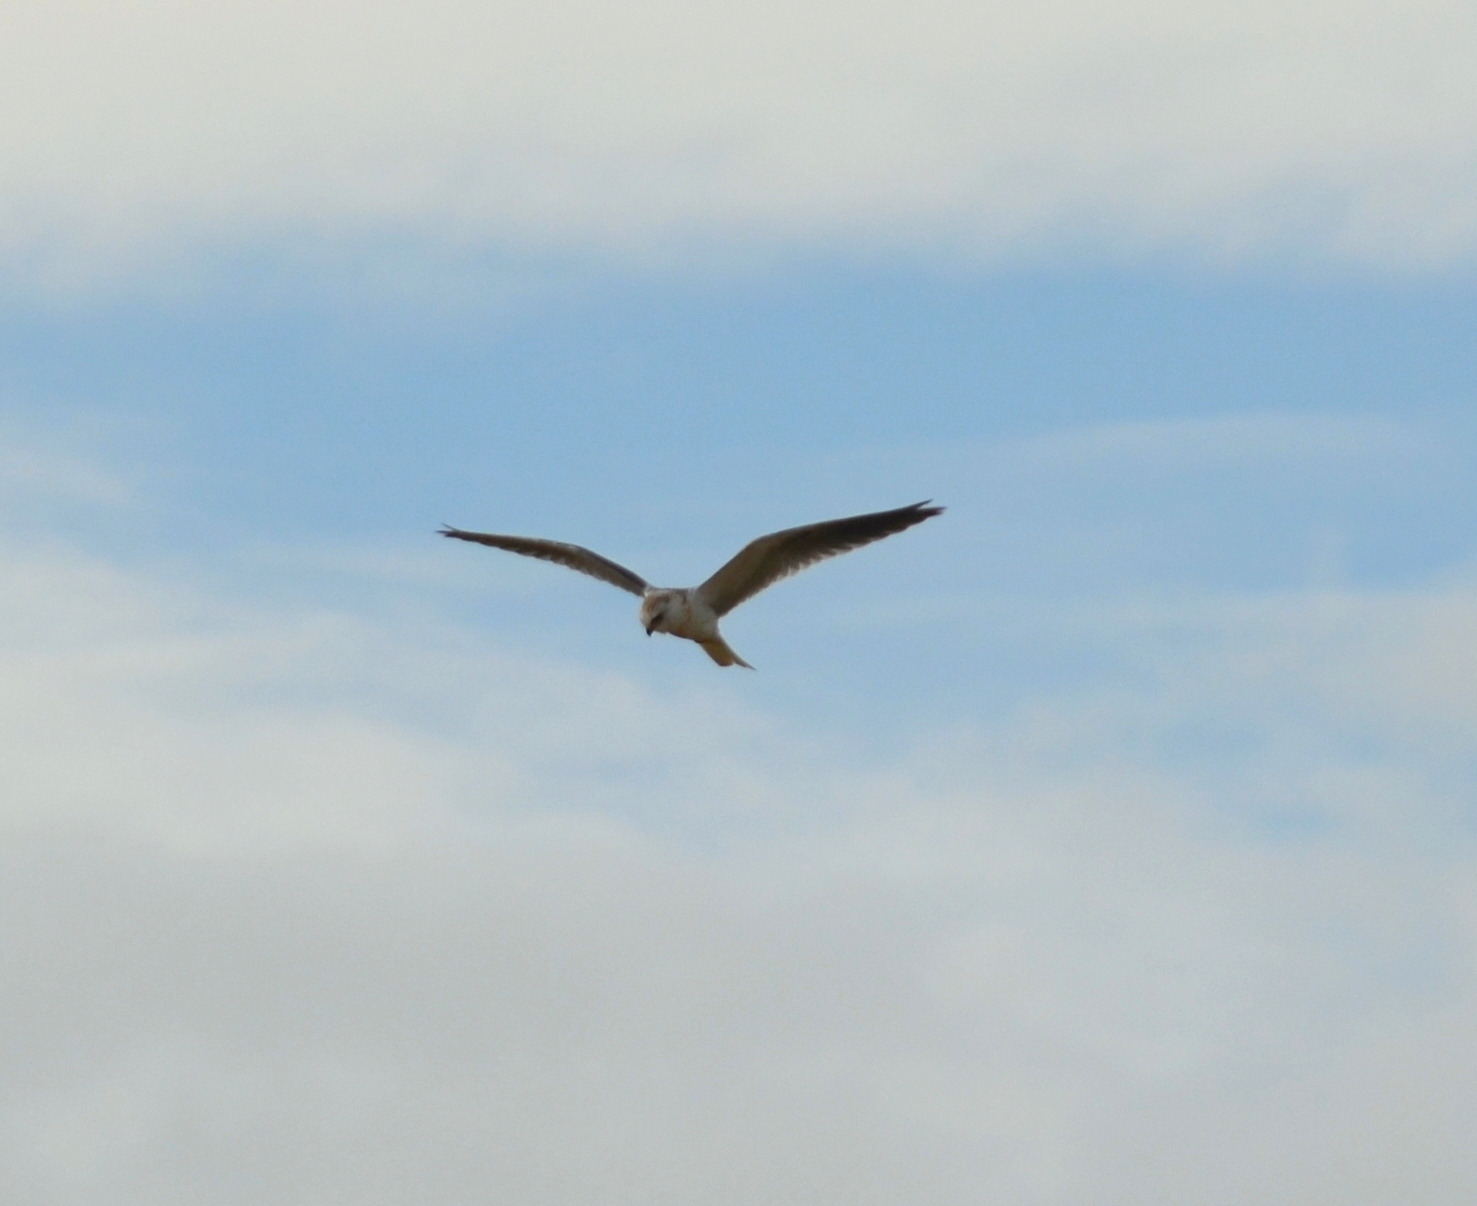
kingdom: Animalia
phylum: Chordata
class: Aves
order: Accipitriformes
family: Accipitridae
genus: Elanus
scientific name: Elanus leucurus
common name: White-tailed kite
